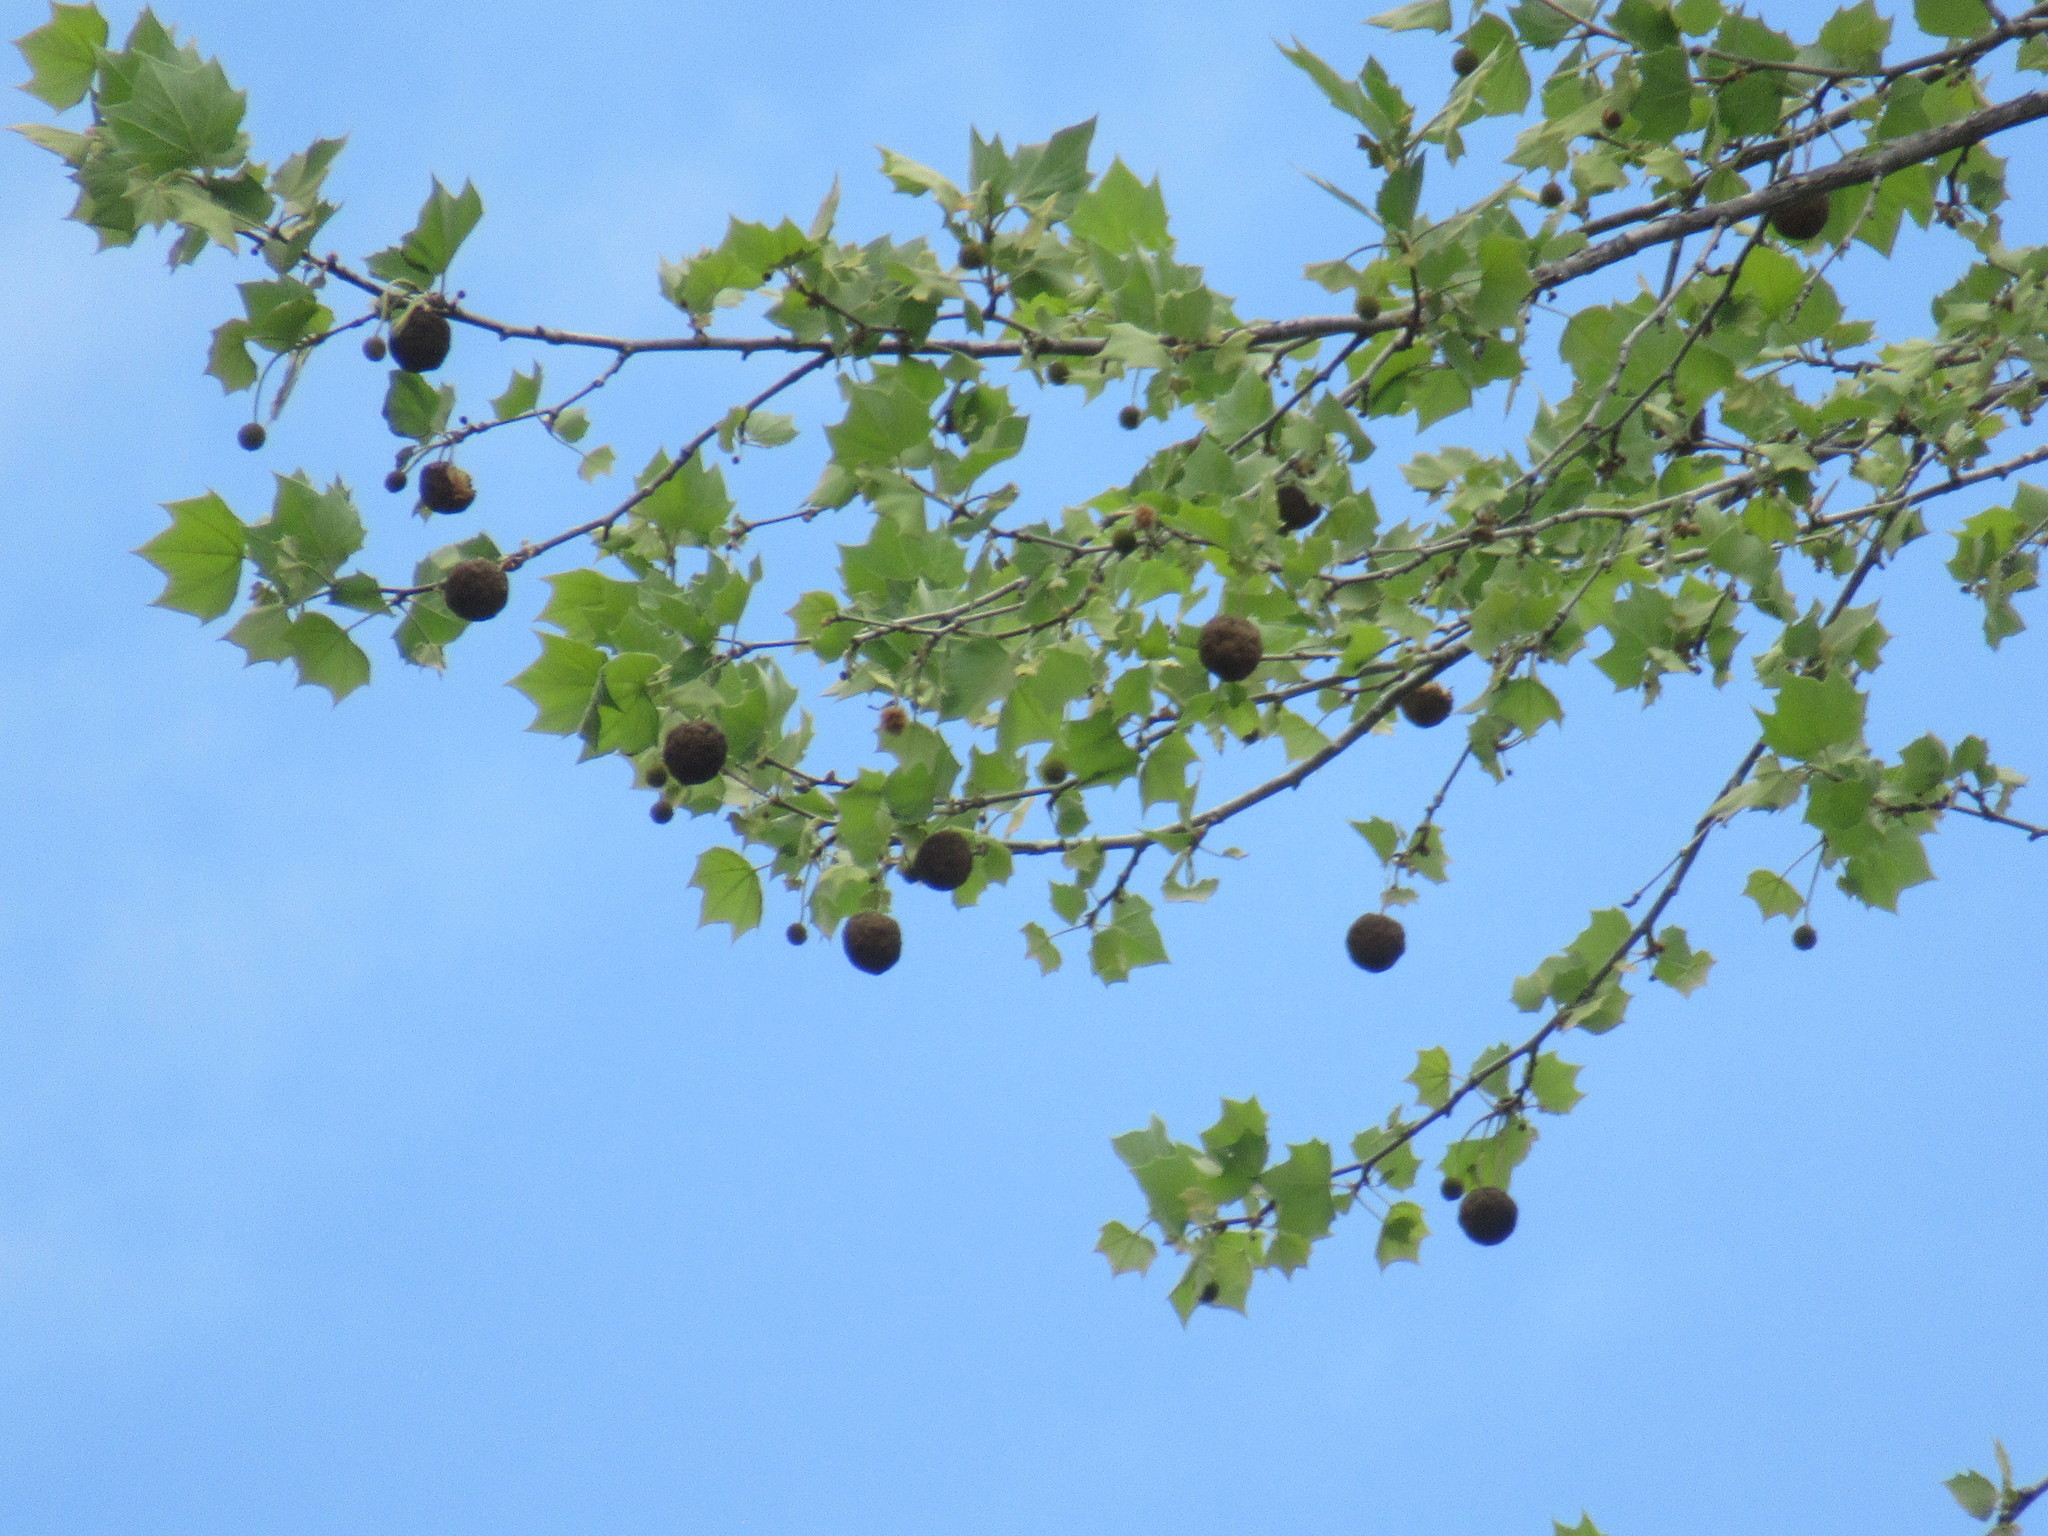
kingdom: Plantae
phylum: Tracheophyta
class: Magnoliopsida
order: Proteales
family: Platanaceae
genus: Platanus
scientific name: Platanus occidentalis
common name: American sycamore
